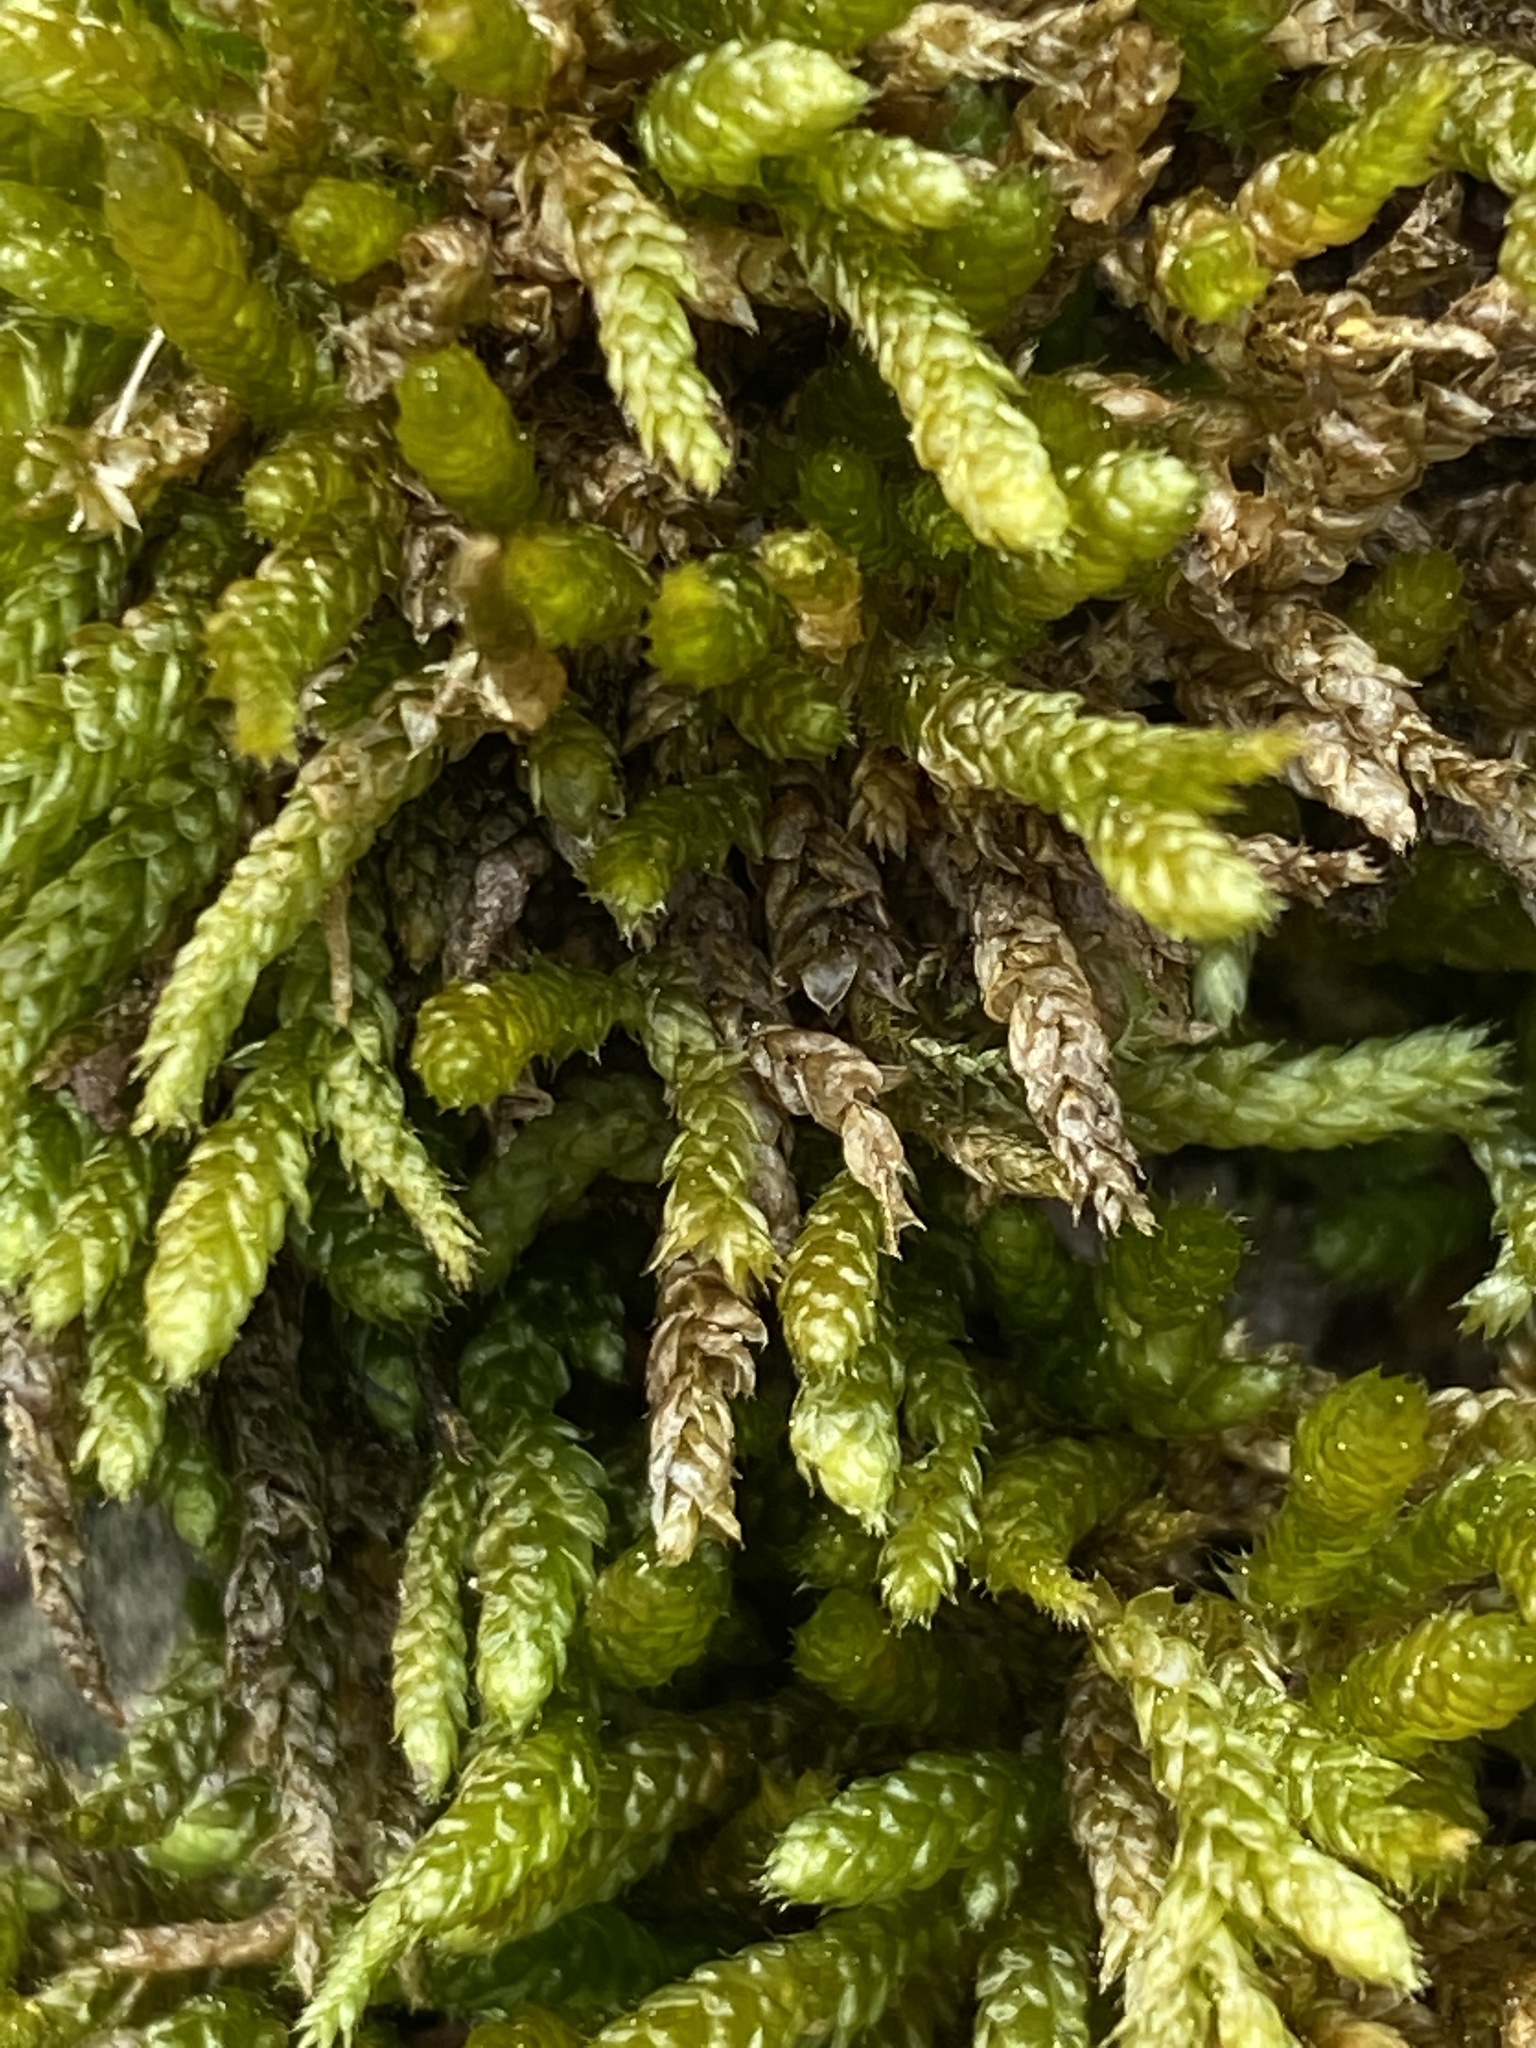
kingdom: Plantae
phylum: Bryophyta
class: Bryopsida
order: Hypnales
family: Brachytheciaceae
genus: Bryoandersonia
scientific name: Bryoandersonia illecebra
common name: Spoon-leaved moss
